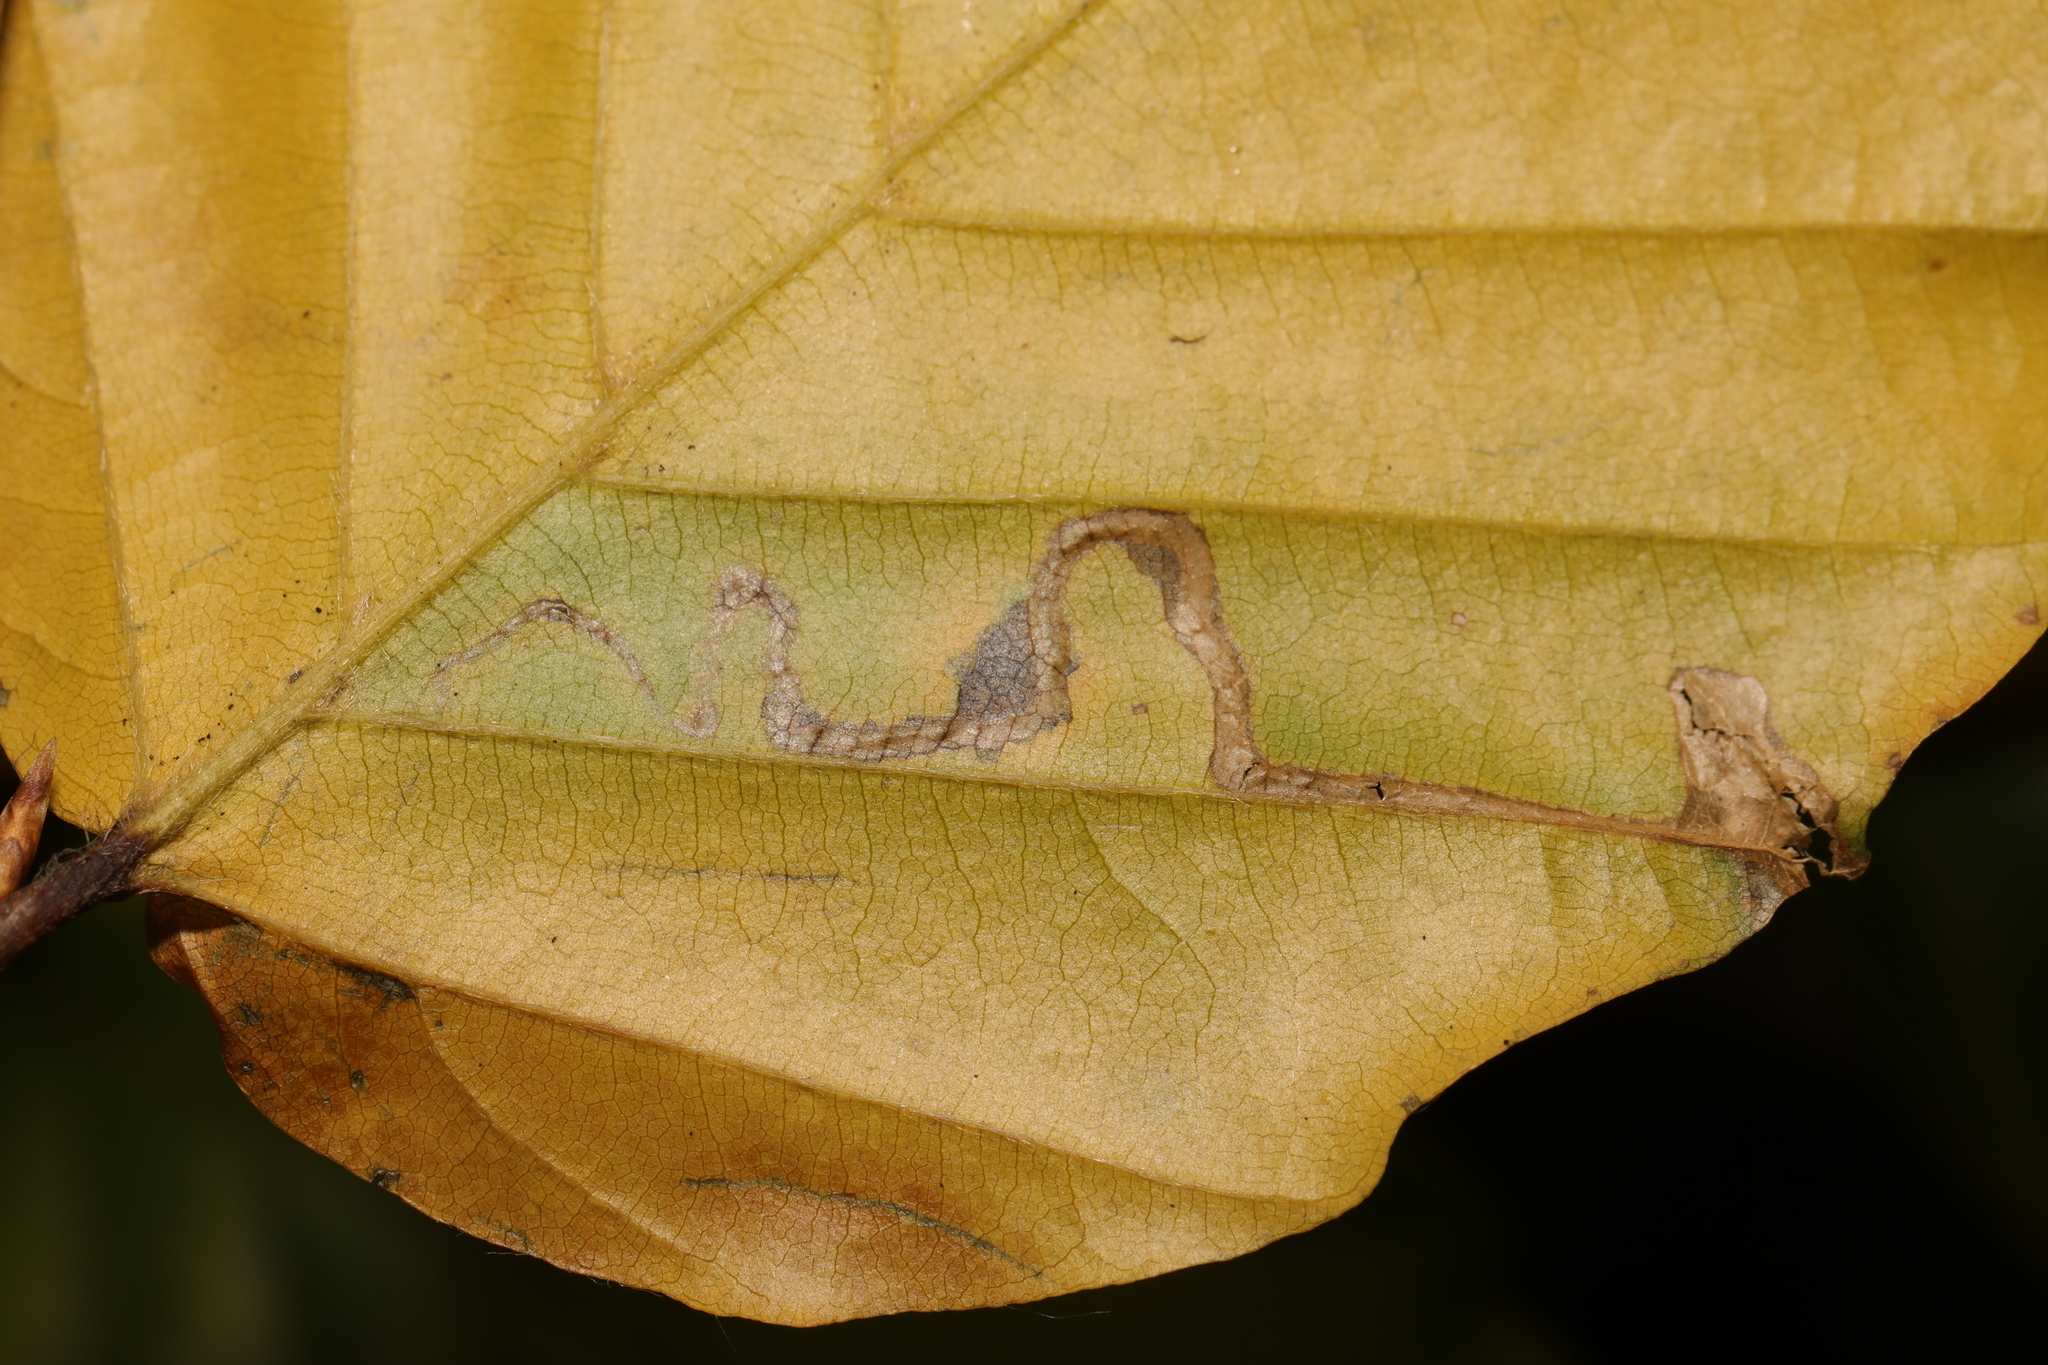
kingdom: Animalia
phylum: Arthropoda
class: Insecta
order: Lepidoptera
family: Gracillariidae
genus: Phyllonorycter
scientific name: Phyllonorycter maestingella
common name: Beech midget
